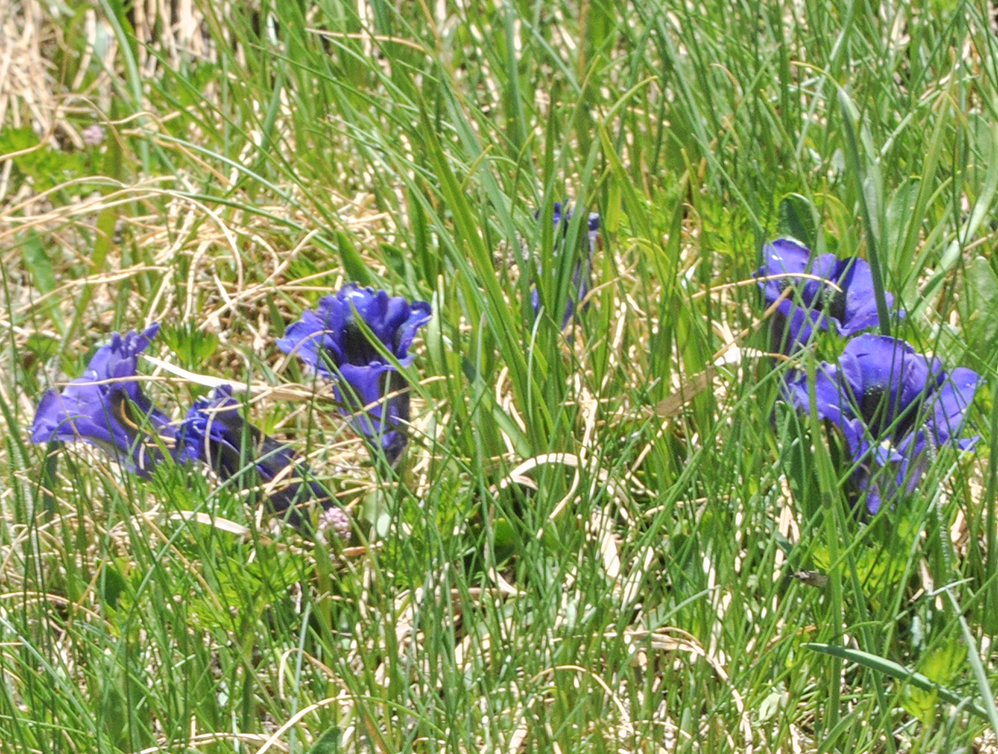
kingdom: Plantae
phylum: Tracheophyta
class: Magnoliopsida
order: Gentianales
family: Gentianaceae
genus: Gentiana
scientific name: Gentiana acaulis
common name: Trumpet gentian
